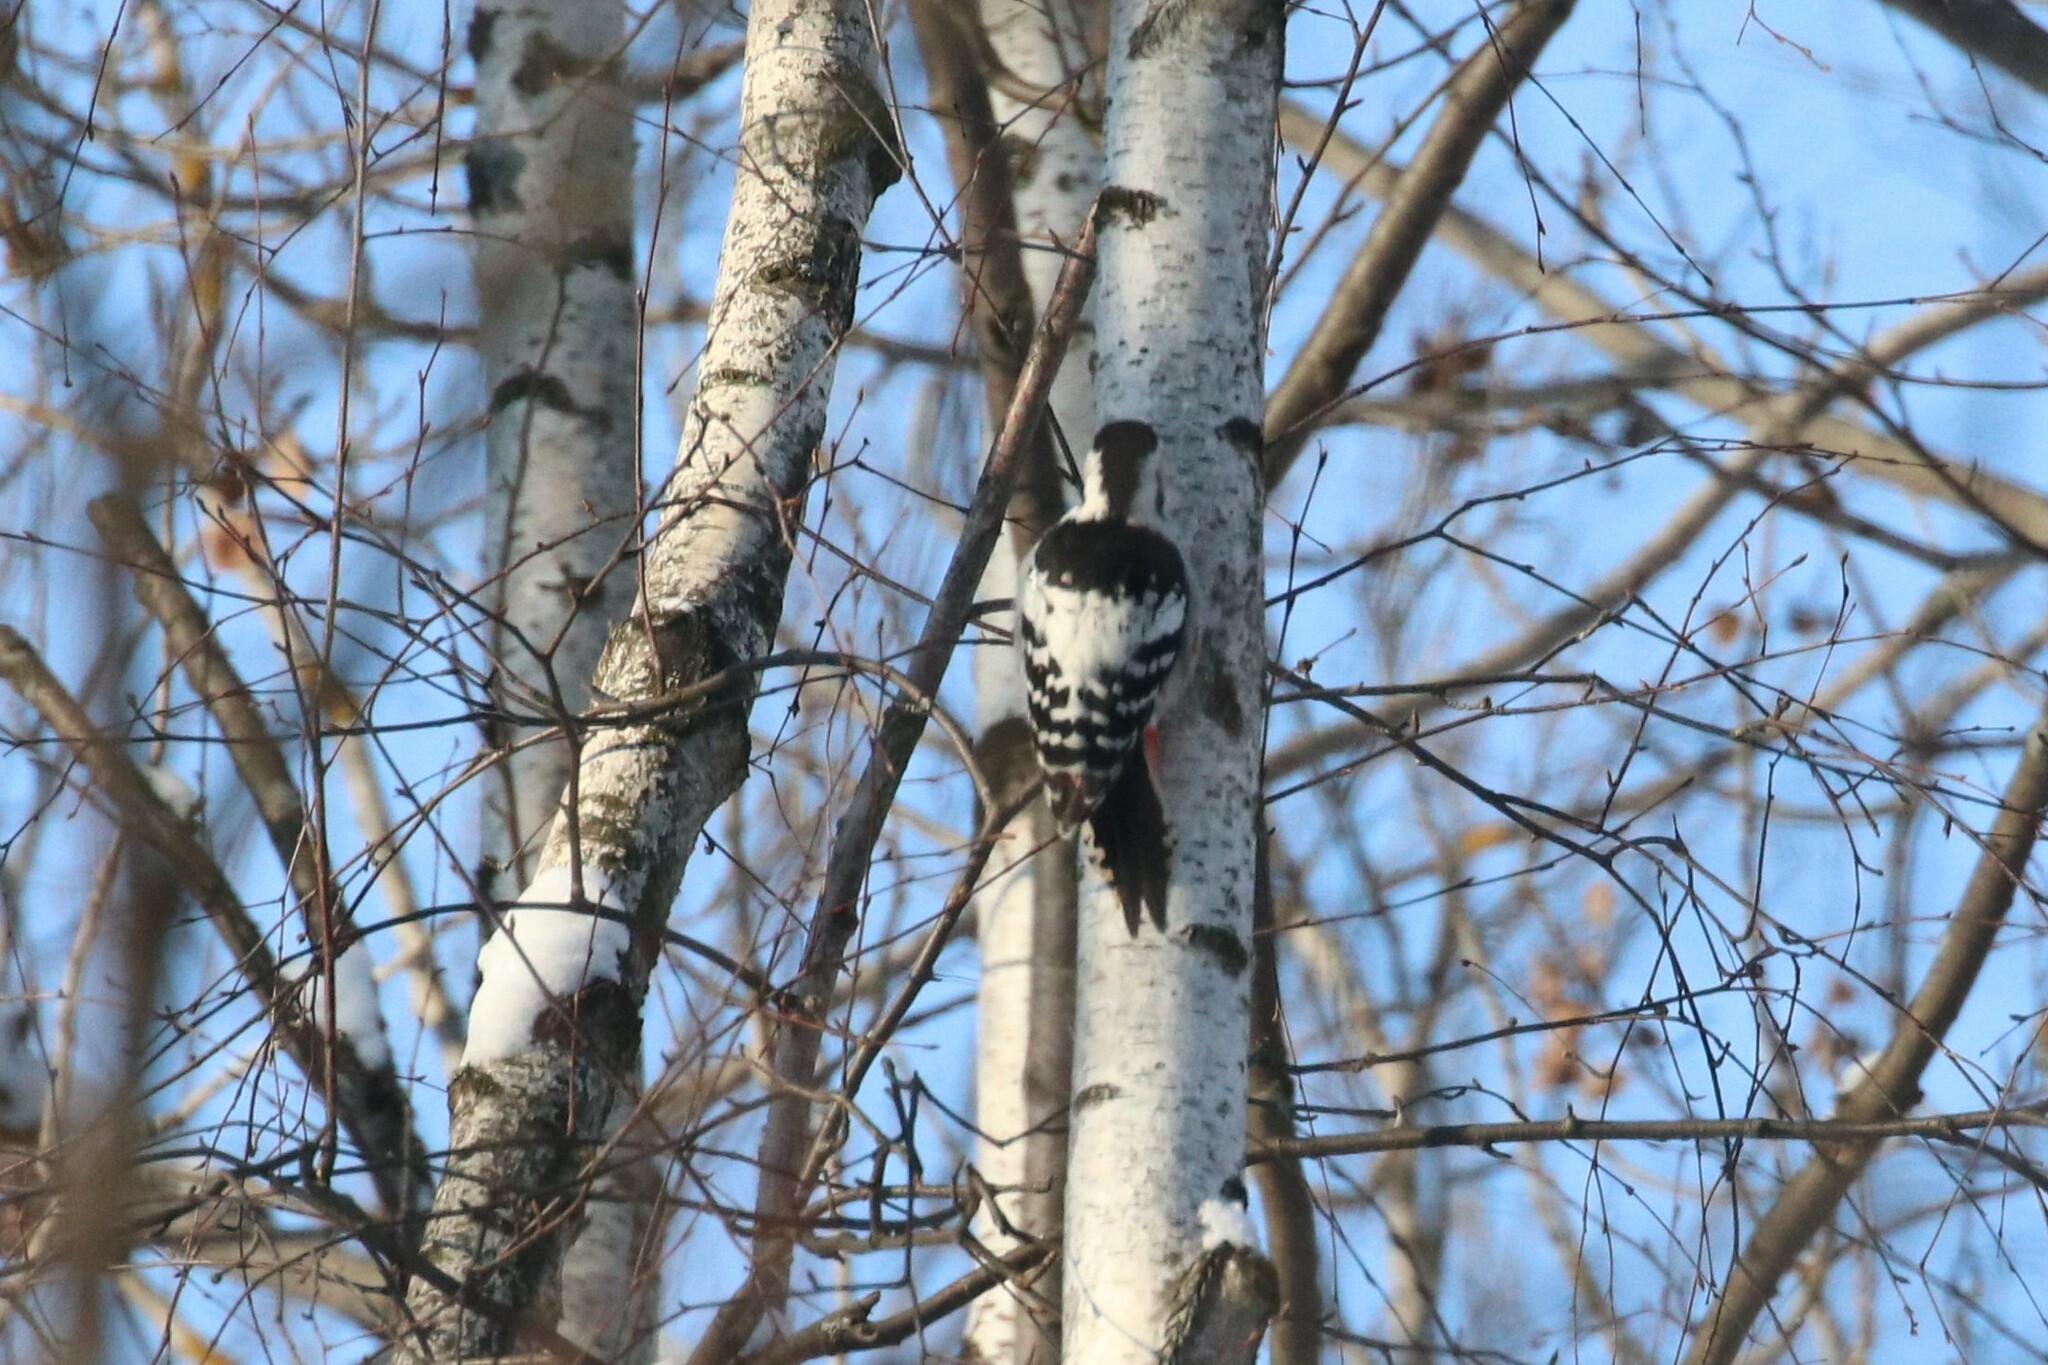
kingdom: Animalia
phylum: Chordata
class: Aves
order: Piciformes
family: Picidae
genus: Dendrocopos
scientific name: Dendrocopos leucotos
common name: White-backed woodpecker
